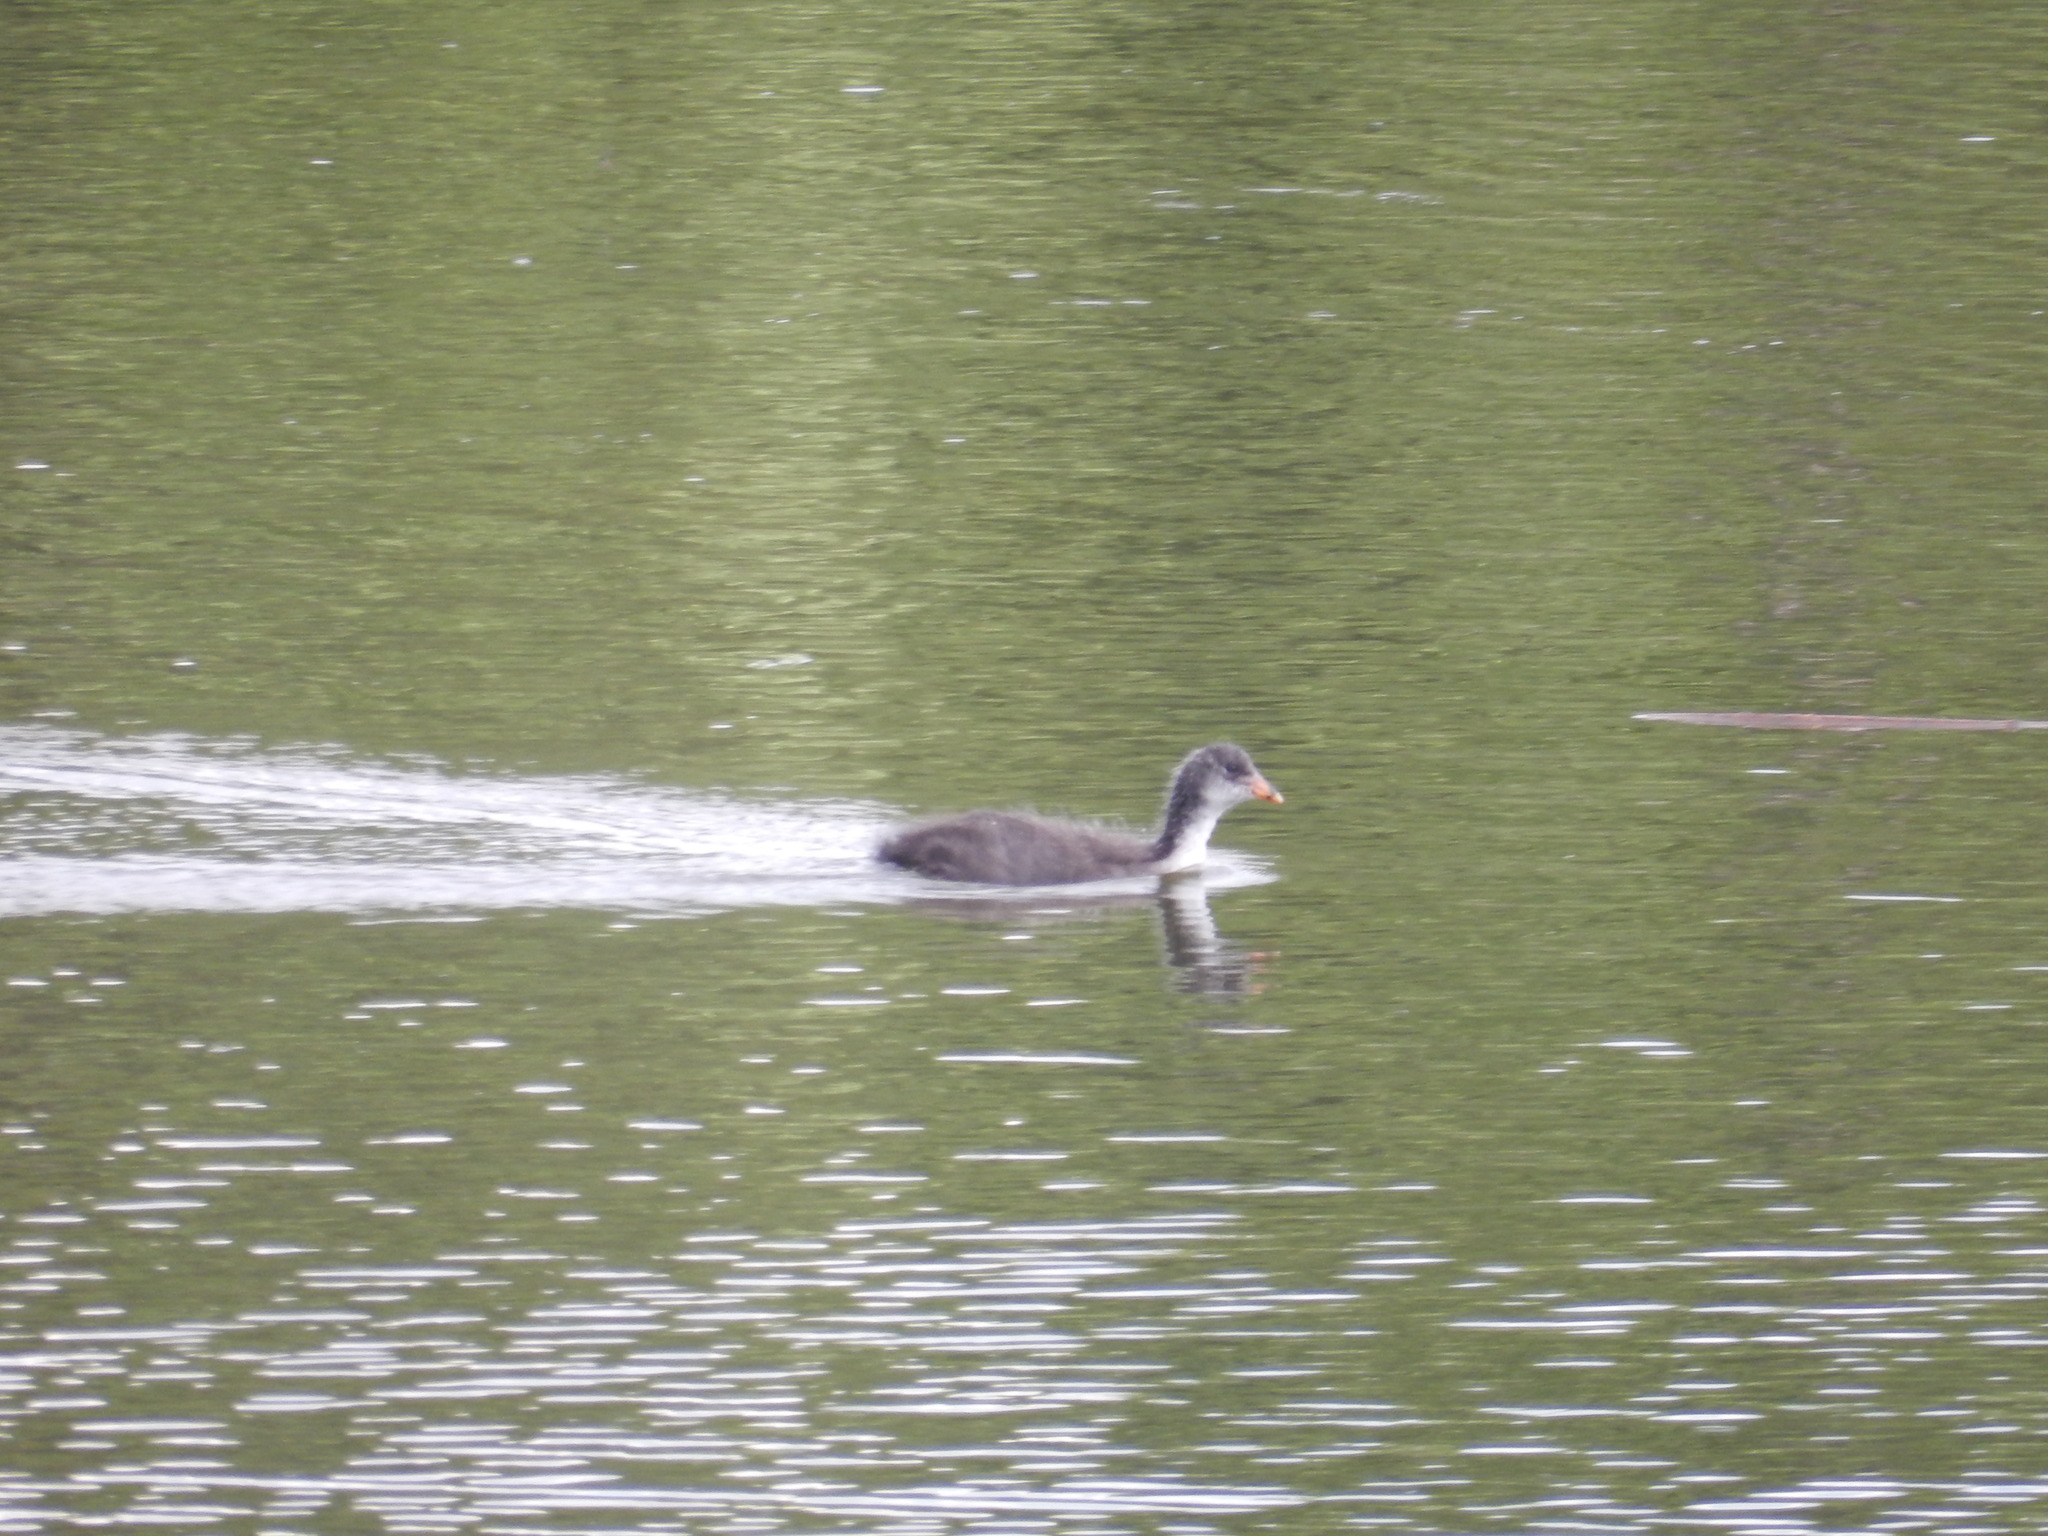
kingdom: Animalia
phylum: Chordata
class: Aves
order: Gruiformes
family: Rallidae
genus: Fulica
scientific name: Fulica atra
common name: Eurasian coot
